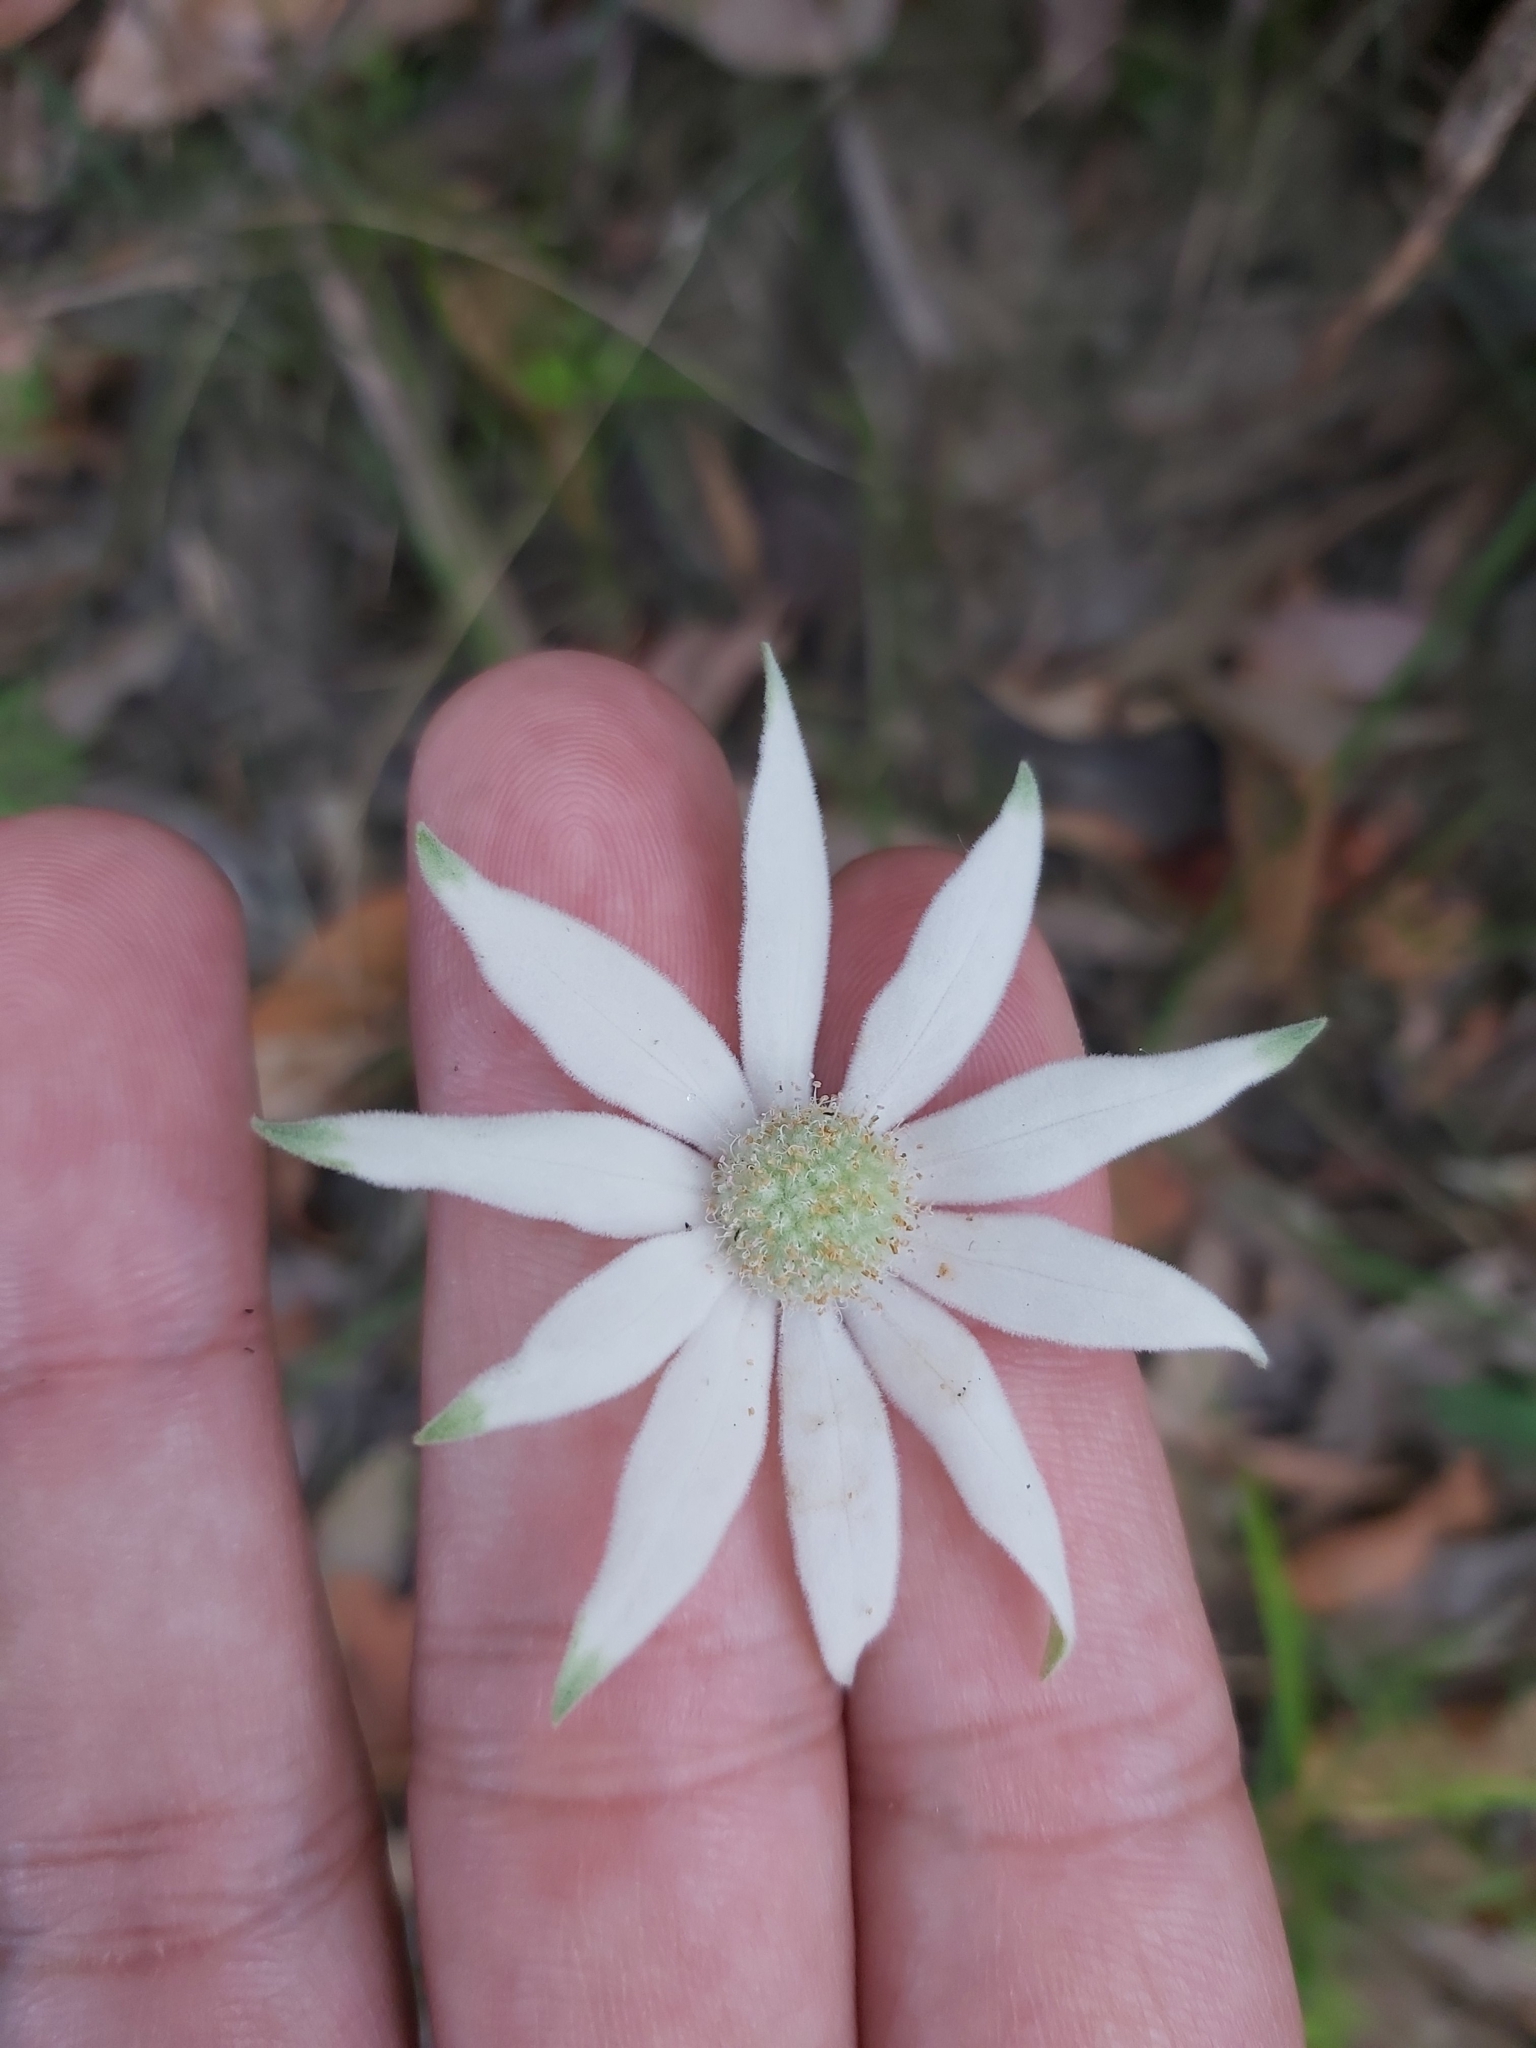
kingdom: Plantae
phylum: Tracheophyta
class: Magnoliopsida
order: Apiales
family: Apiaceae
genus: Actinotus
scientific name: Actinotus helianthi
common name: Flannel-flower
